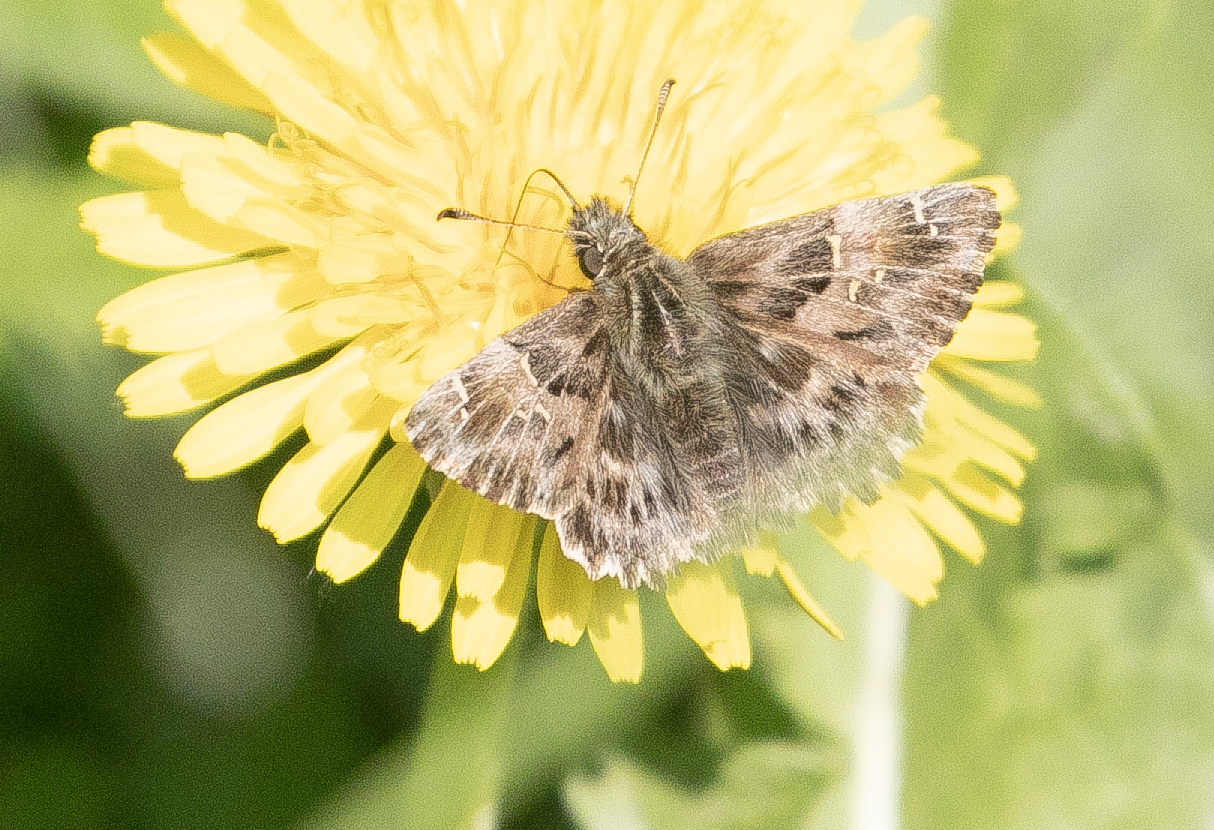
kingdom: Animalia
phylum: Arthropoda
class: Insecta
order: Lepidoptera
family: Hesperiidae
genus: Carcharodus
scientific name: Carcharodus alceae
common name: Mallow skipper
